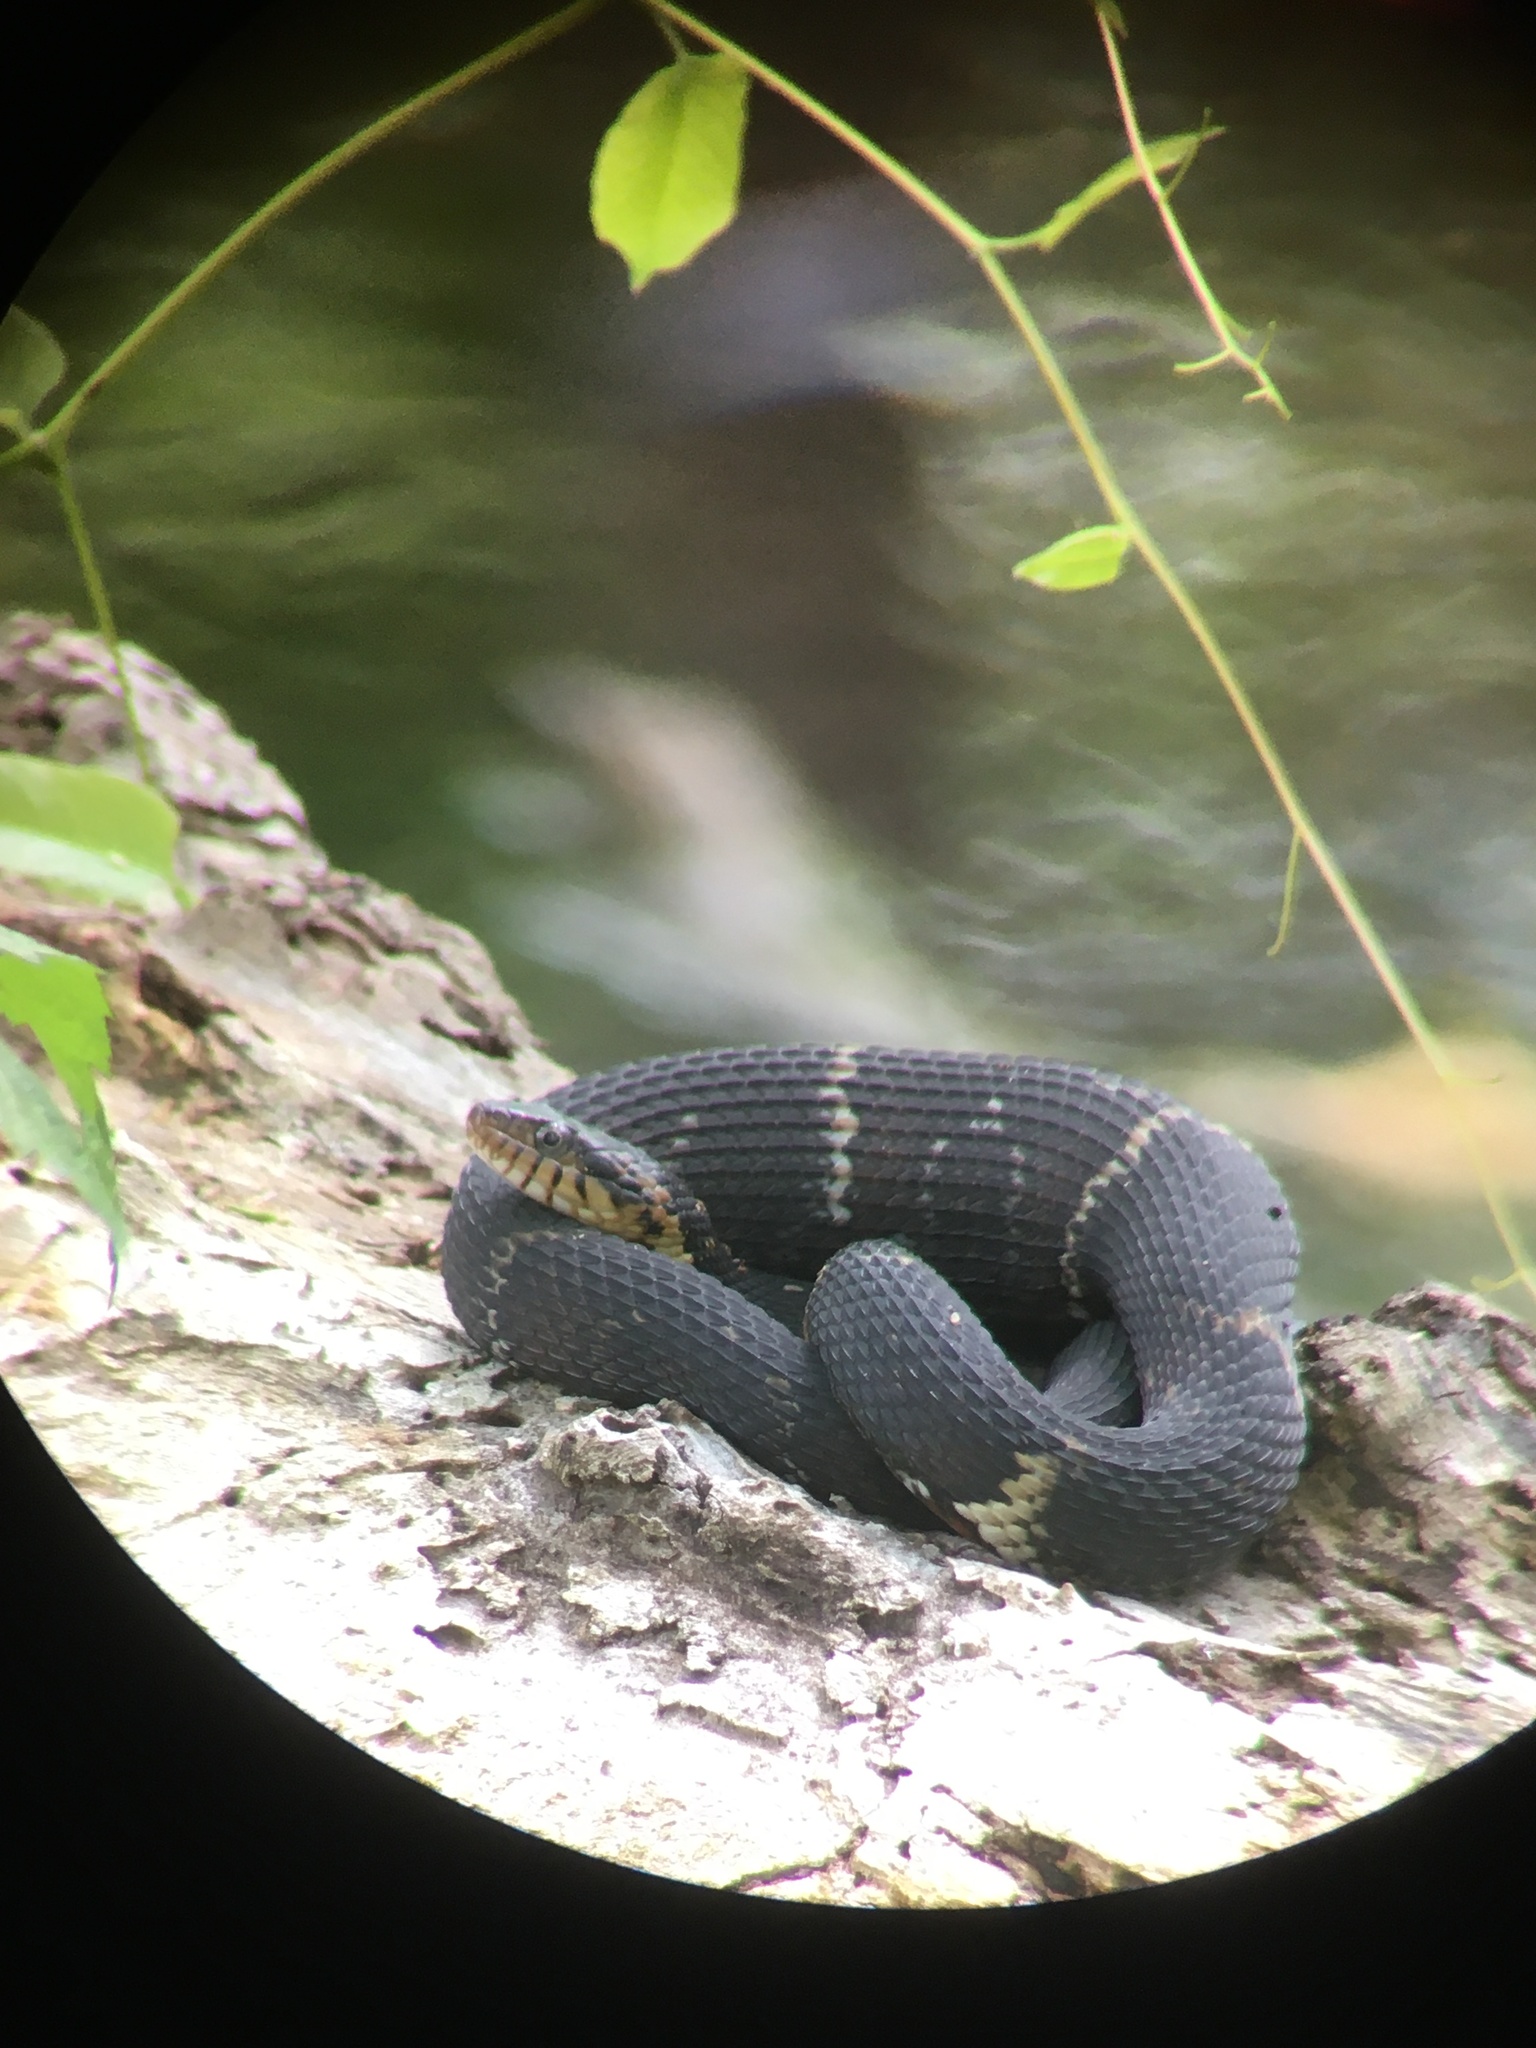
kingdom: Animalia
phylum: Chordata
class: Squamata
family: Colubridae
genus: Nerodia
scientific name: Nerodia fasciata
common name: Southern water snake
